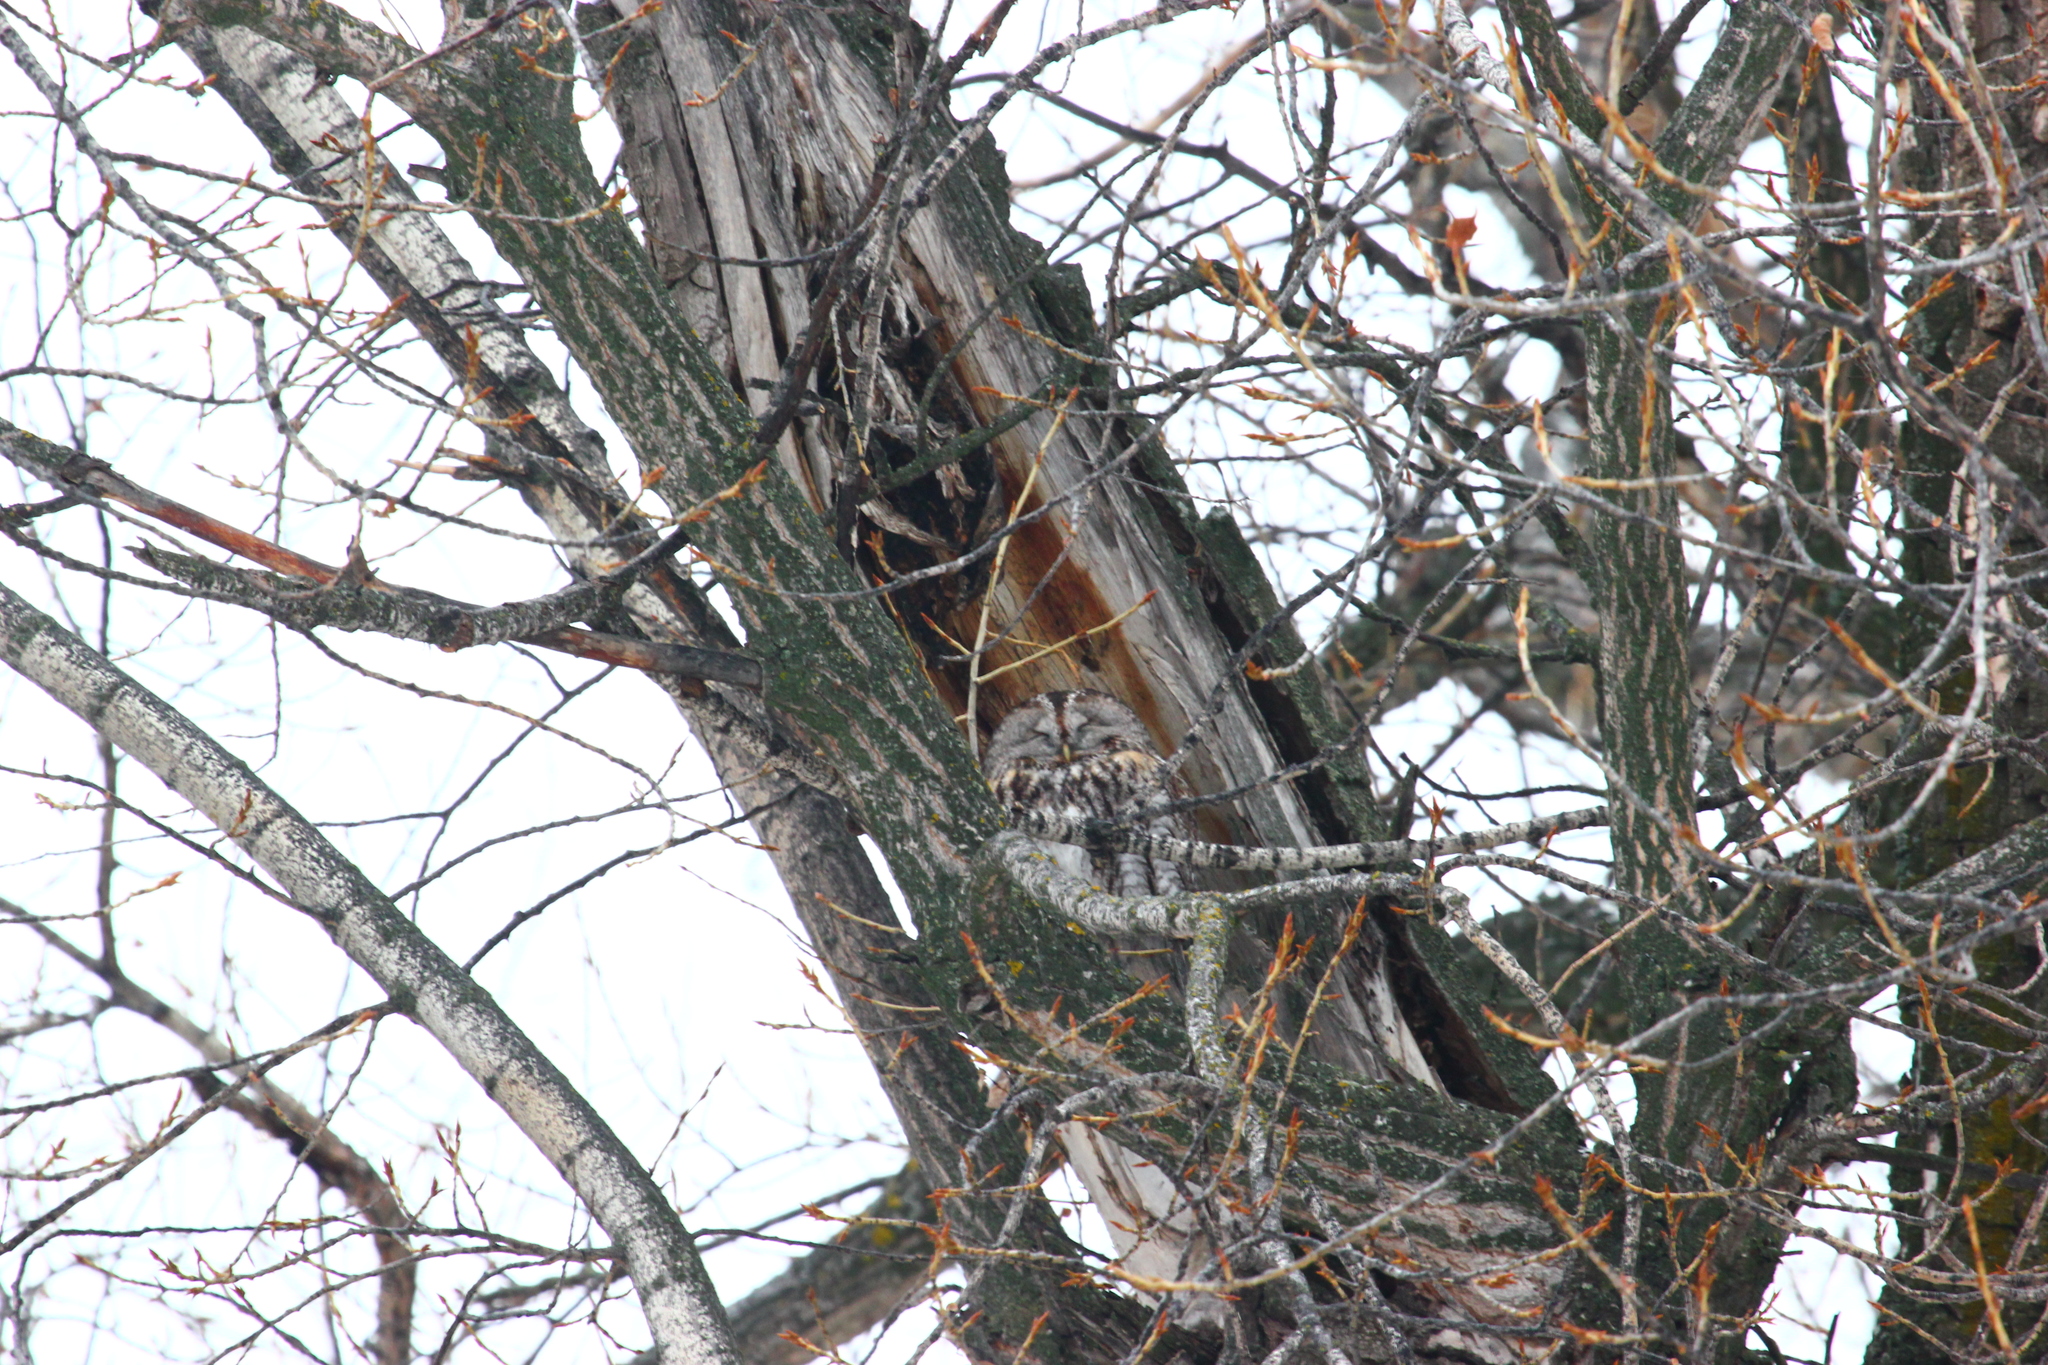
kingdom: Animalia
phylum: Chordata
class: Aves
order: Strigiformes
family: Strigidae
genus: Strix
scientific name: Strix aluco
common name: Tawny owl
